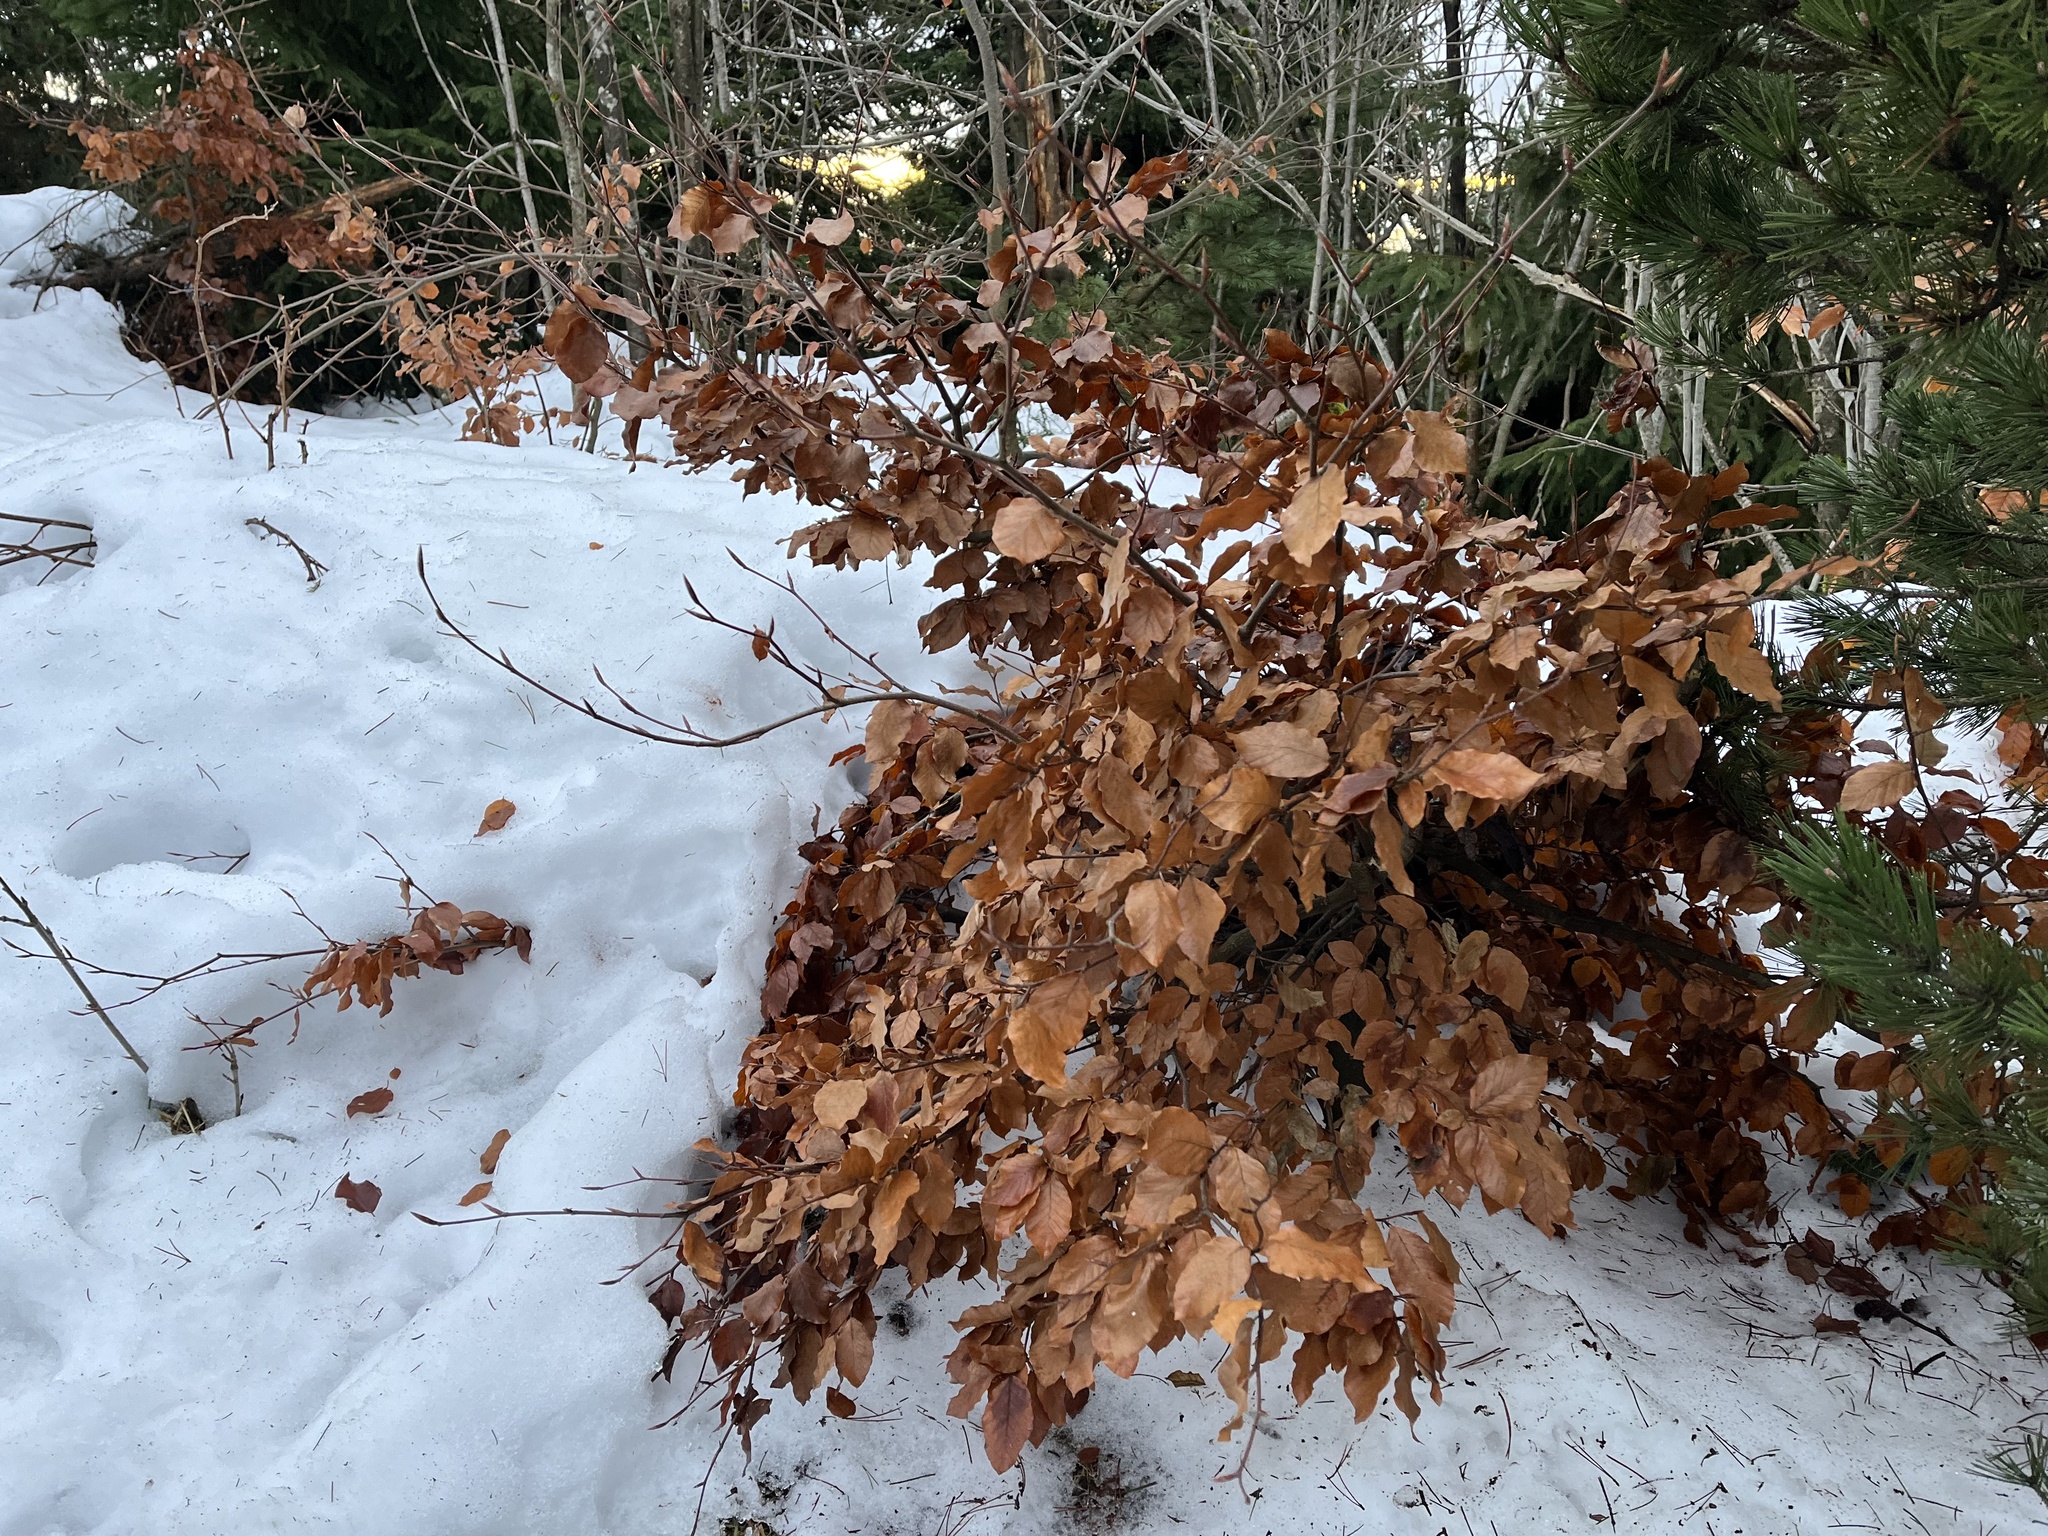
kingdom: Plantae
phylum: Tracheophyta
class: Magnoliopsida
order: Fagales
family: Fagaceae
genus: Fagus
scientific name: Fagus sylvatica
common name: Beech
